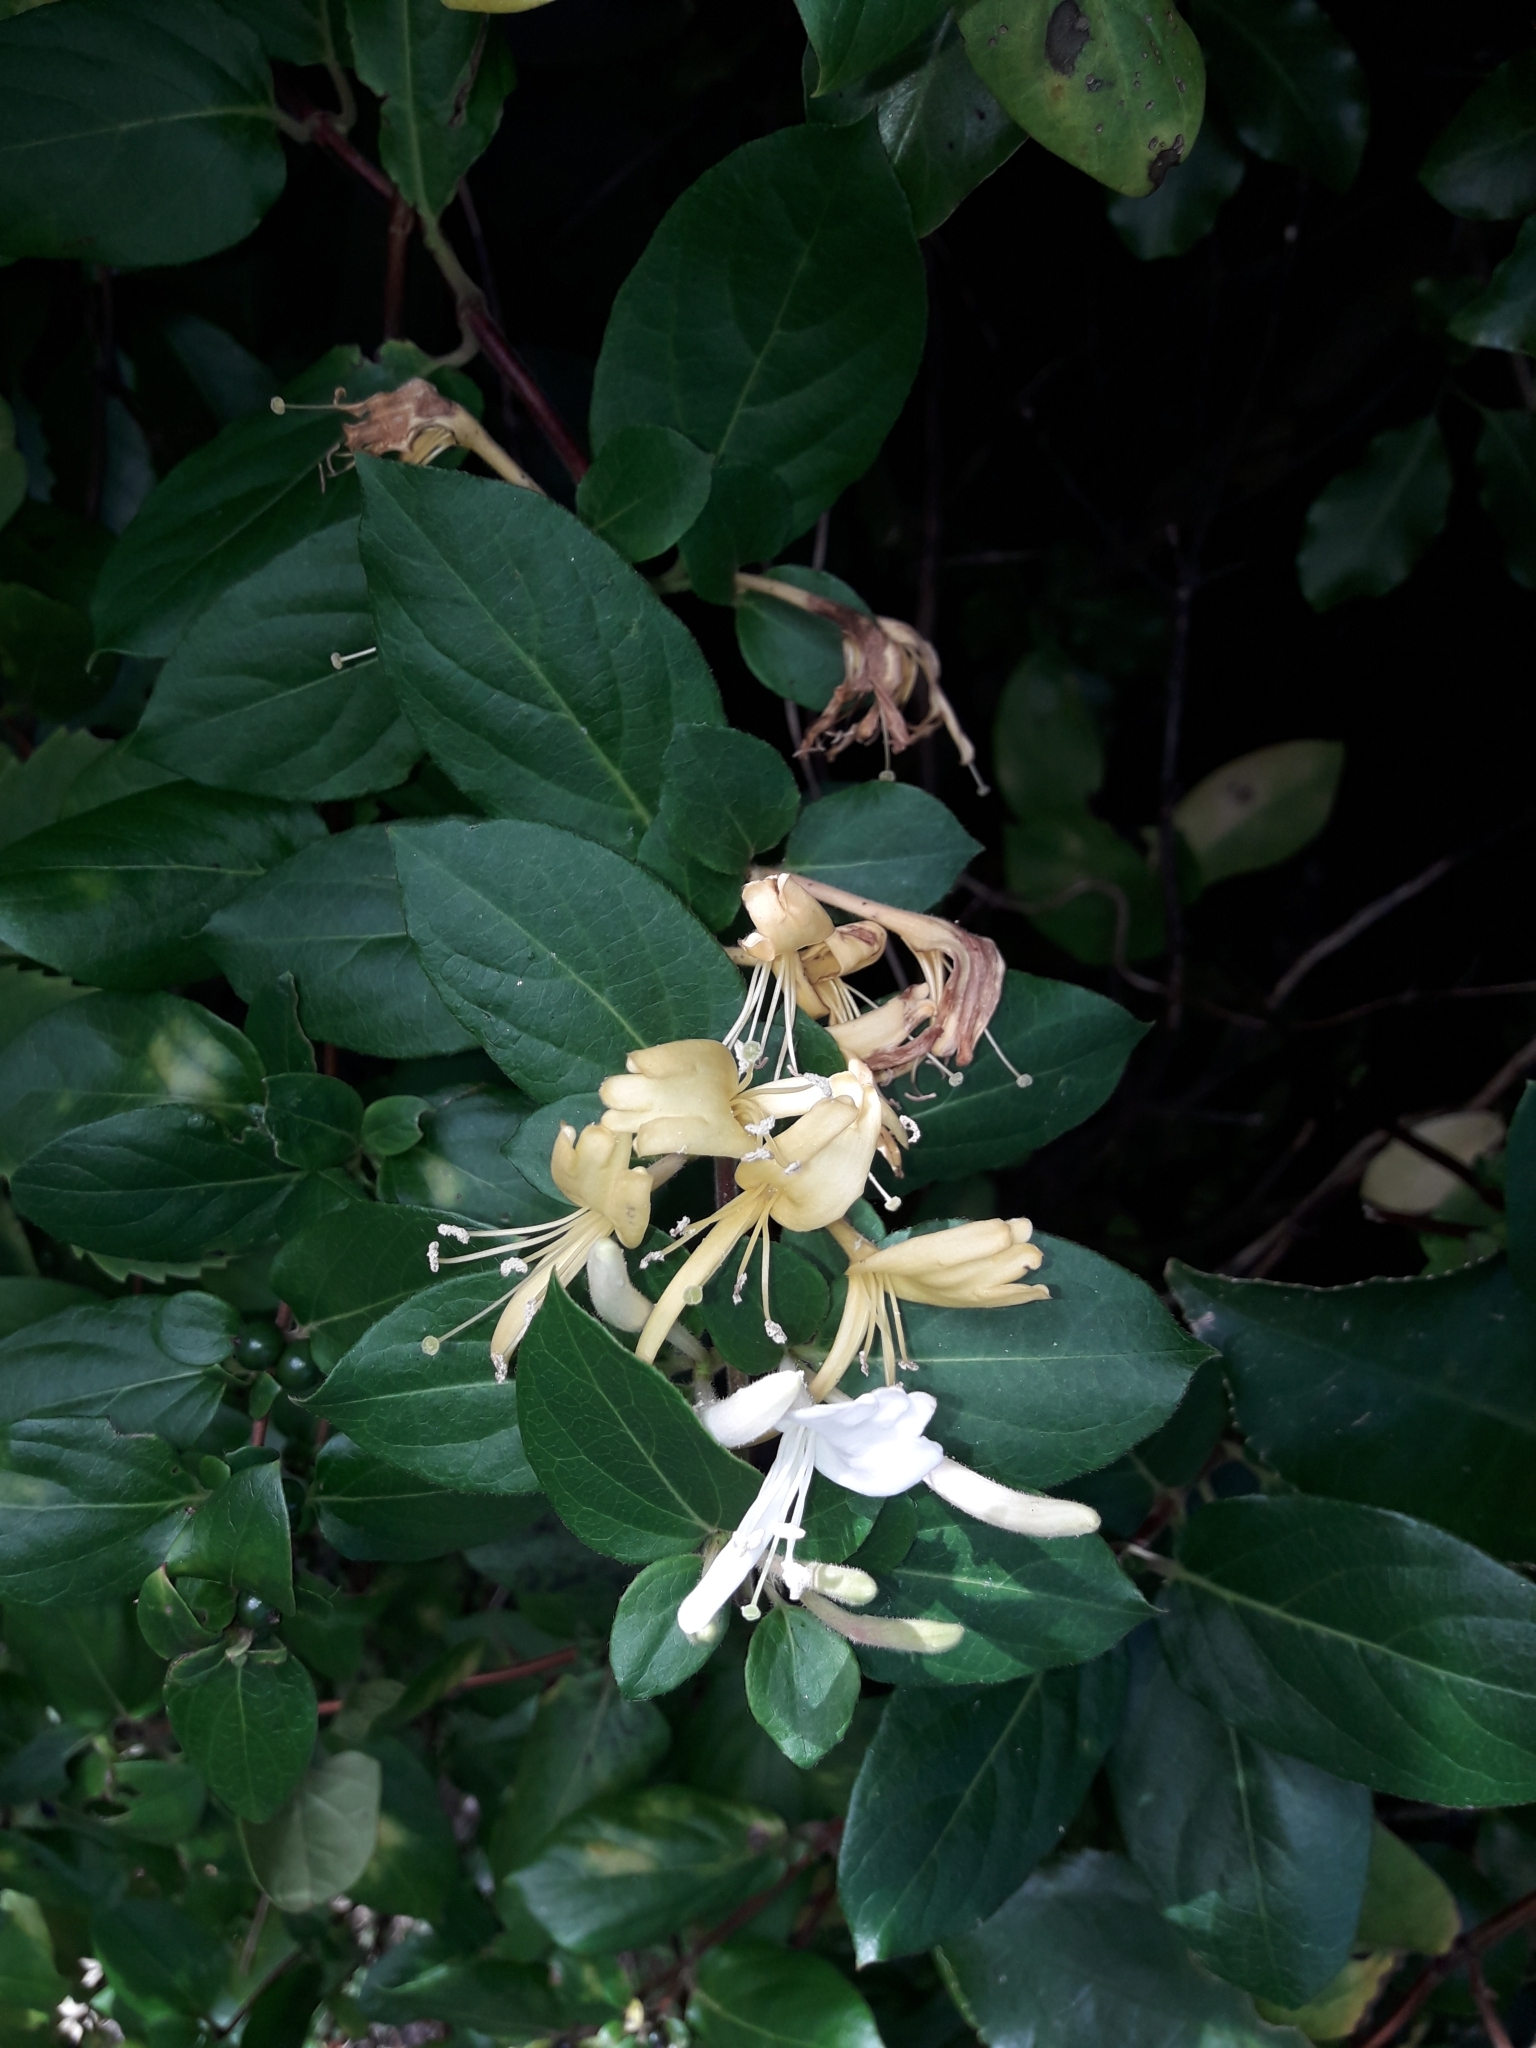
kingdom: Plantae
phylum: Tracheophyta
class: Magnoliopsida
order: Dipsacales
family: Caprifoliaceae
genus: Lonicera
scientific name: Lonicera japonica
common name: Japanese honeysuckle
